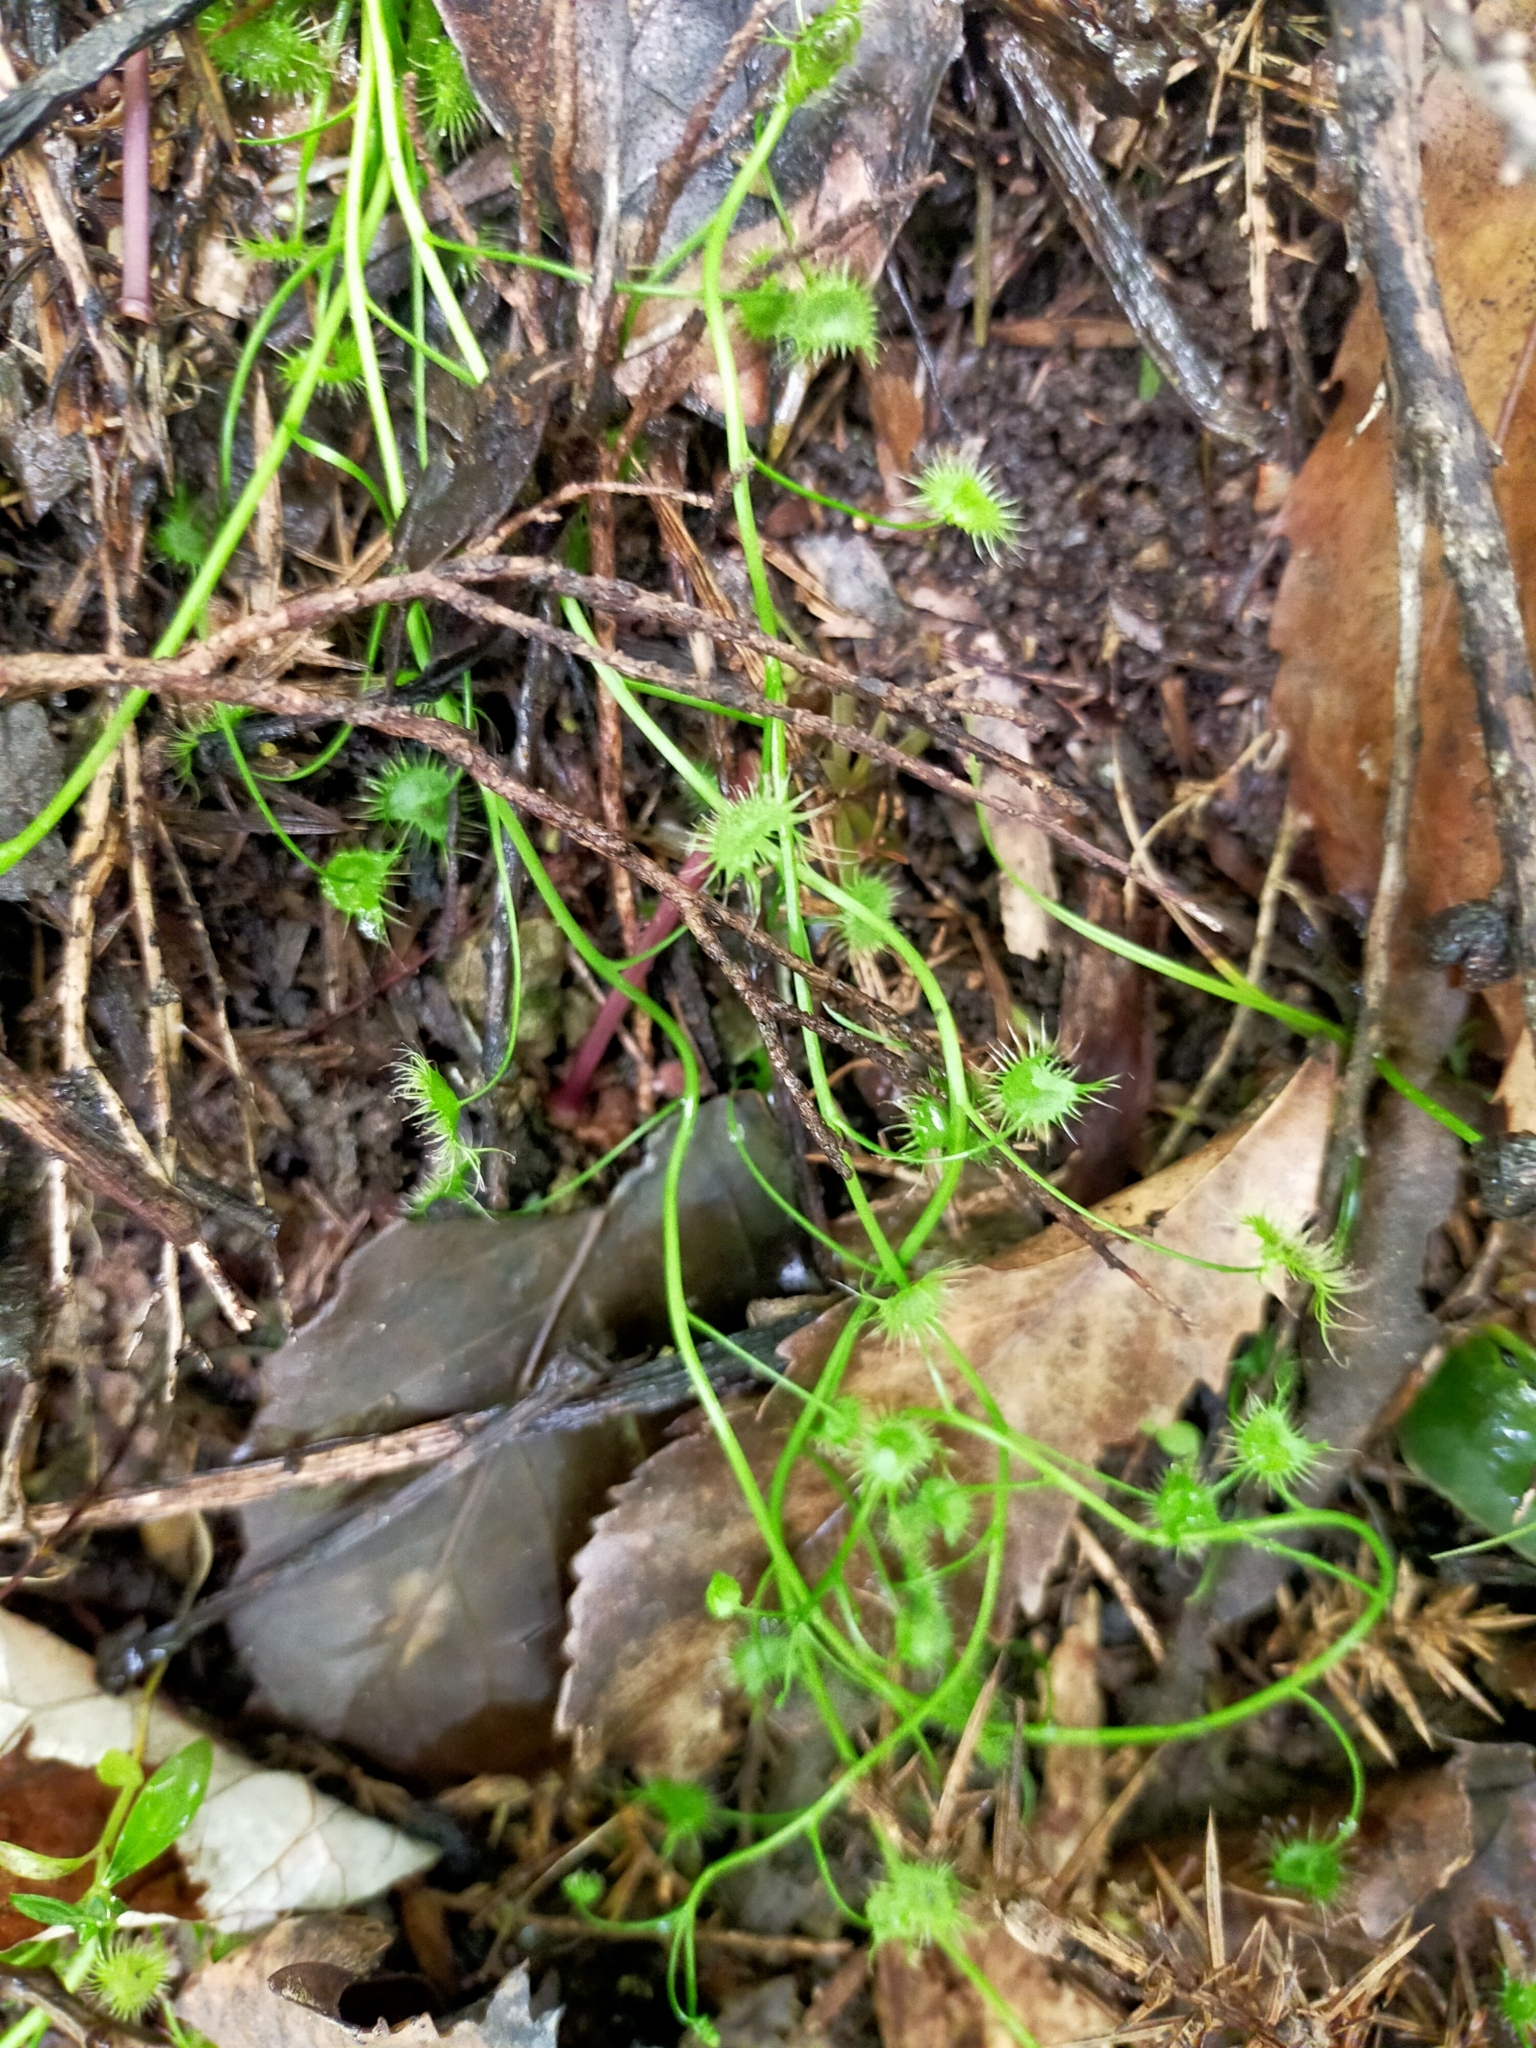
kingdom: Plantae
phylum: Tracheophyta
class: Magnoliopsida
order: Caryophyllales
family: Droseraceae
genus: Drosera
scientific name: Drosera peltata
